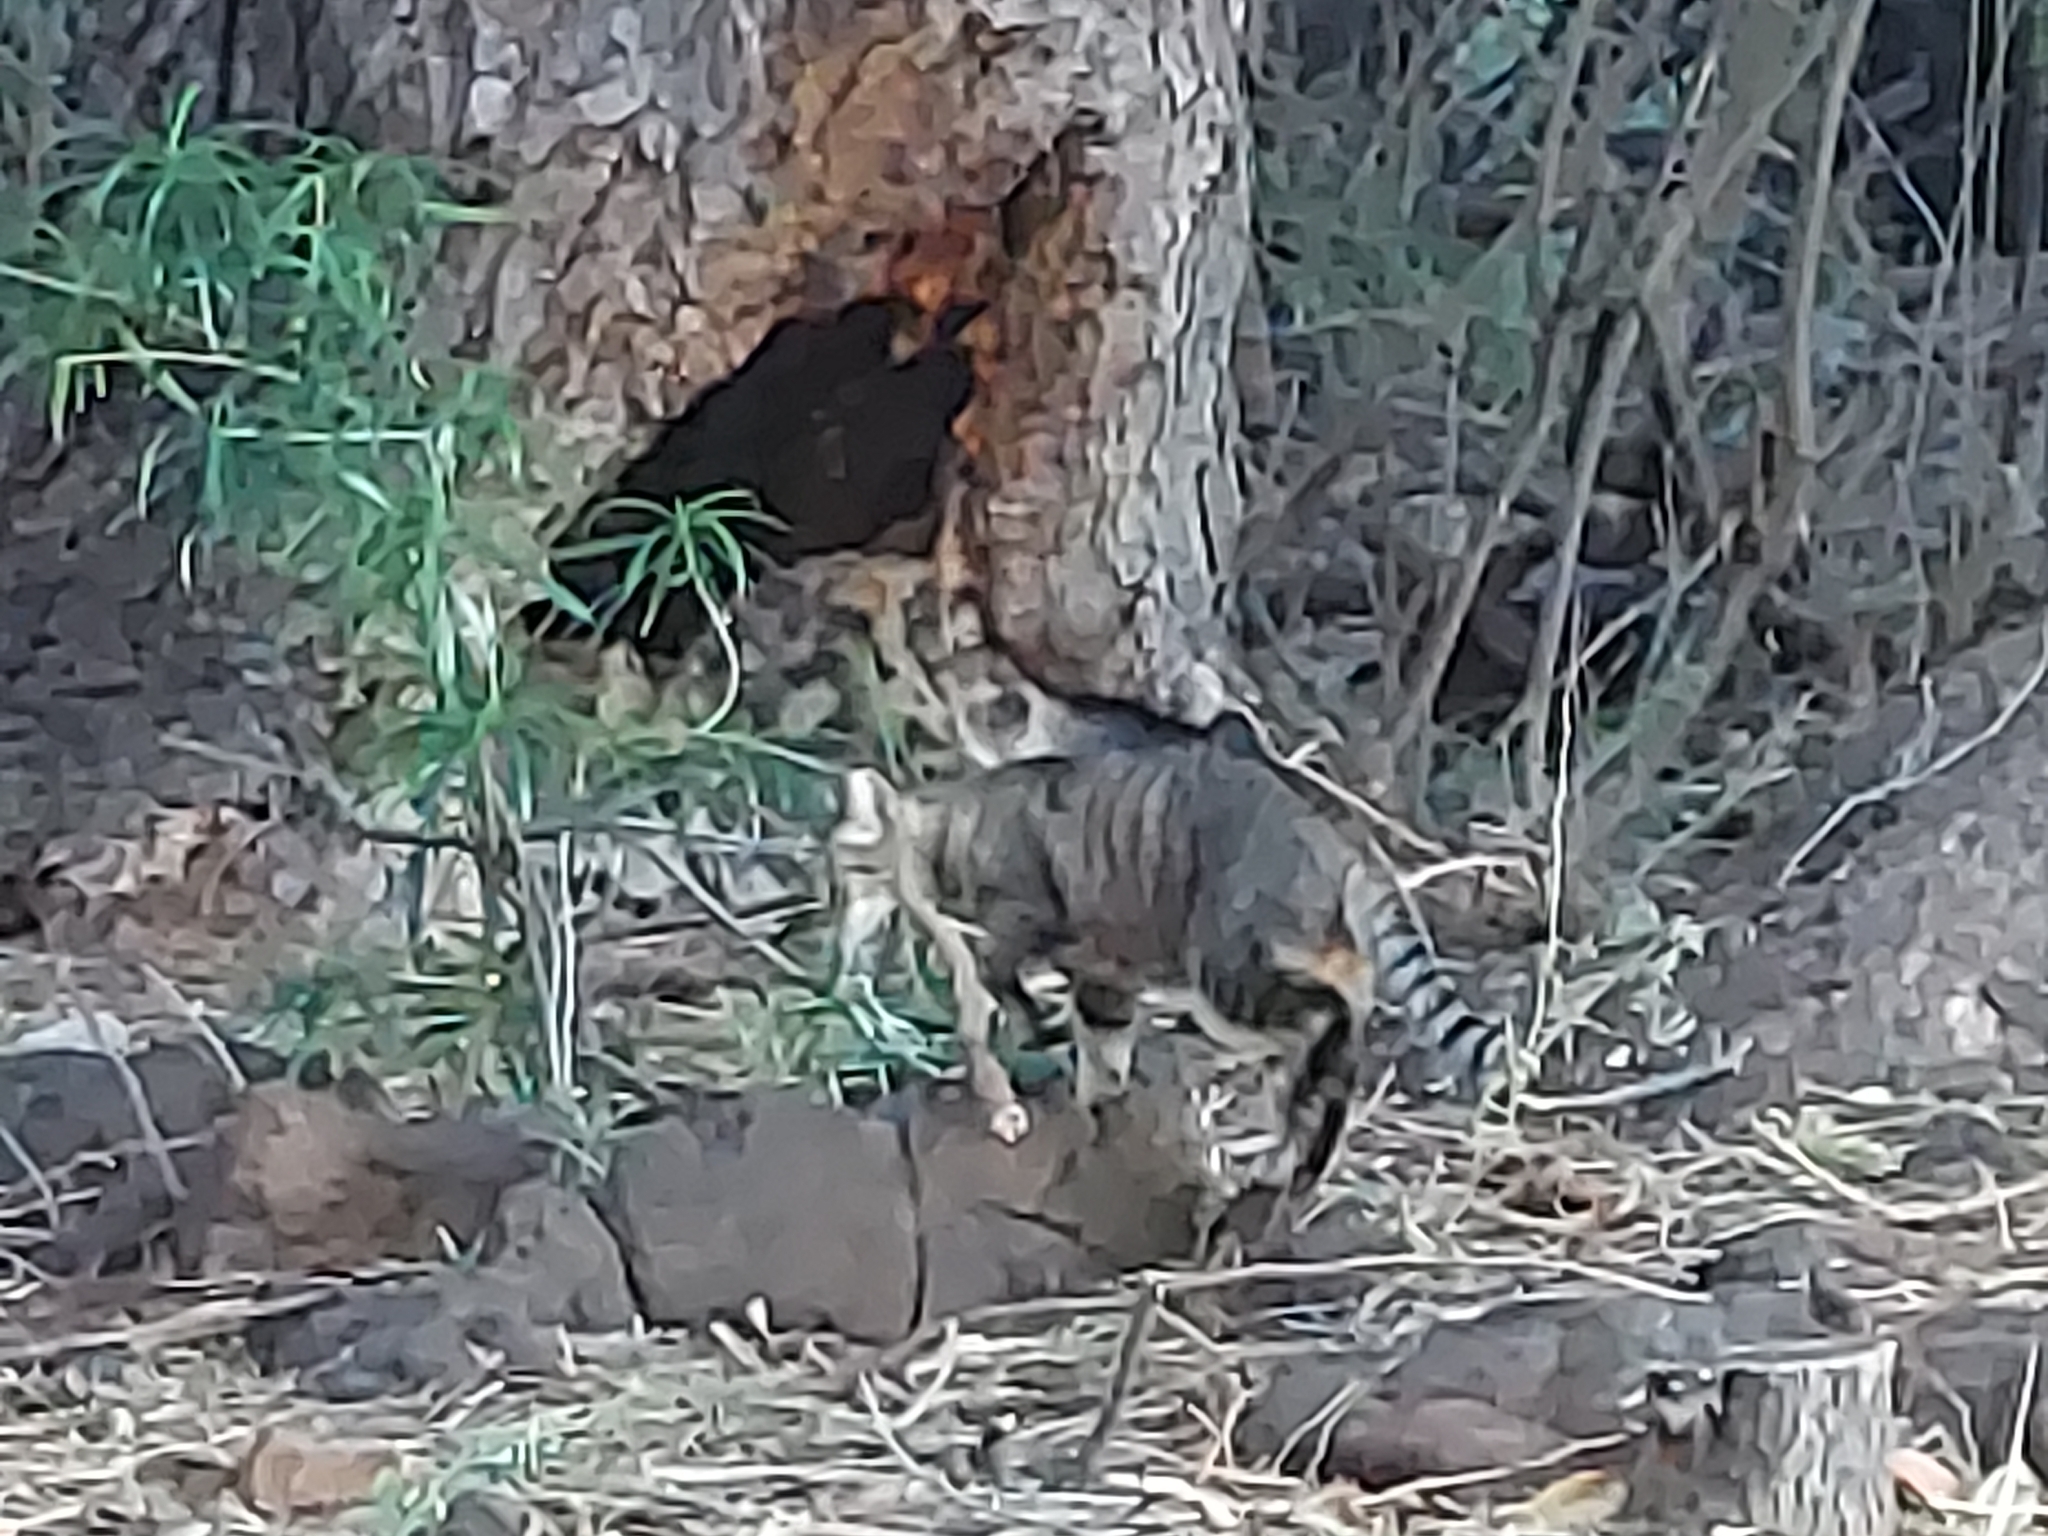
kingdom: Animalia
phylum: Chordata
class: Mammalia
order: Carnivora
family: Felidae
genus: Felis
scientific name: Felis catus
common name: Domestic cat
